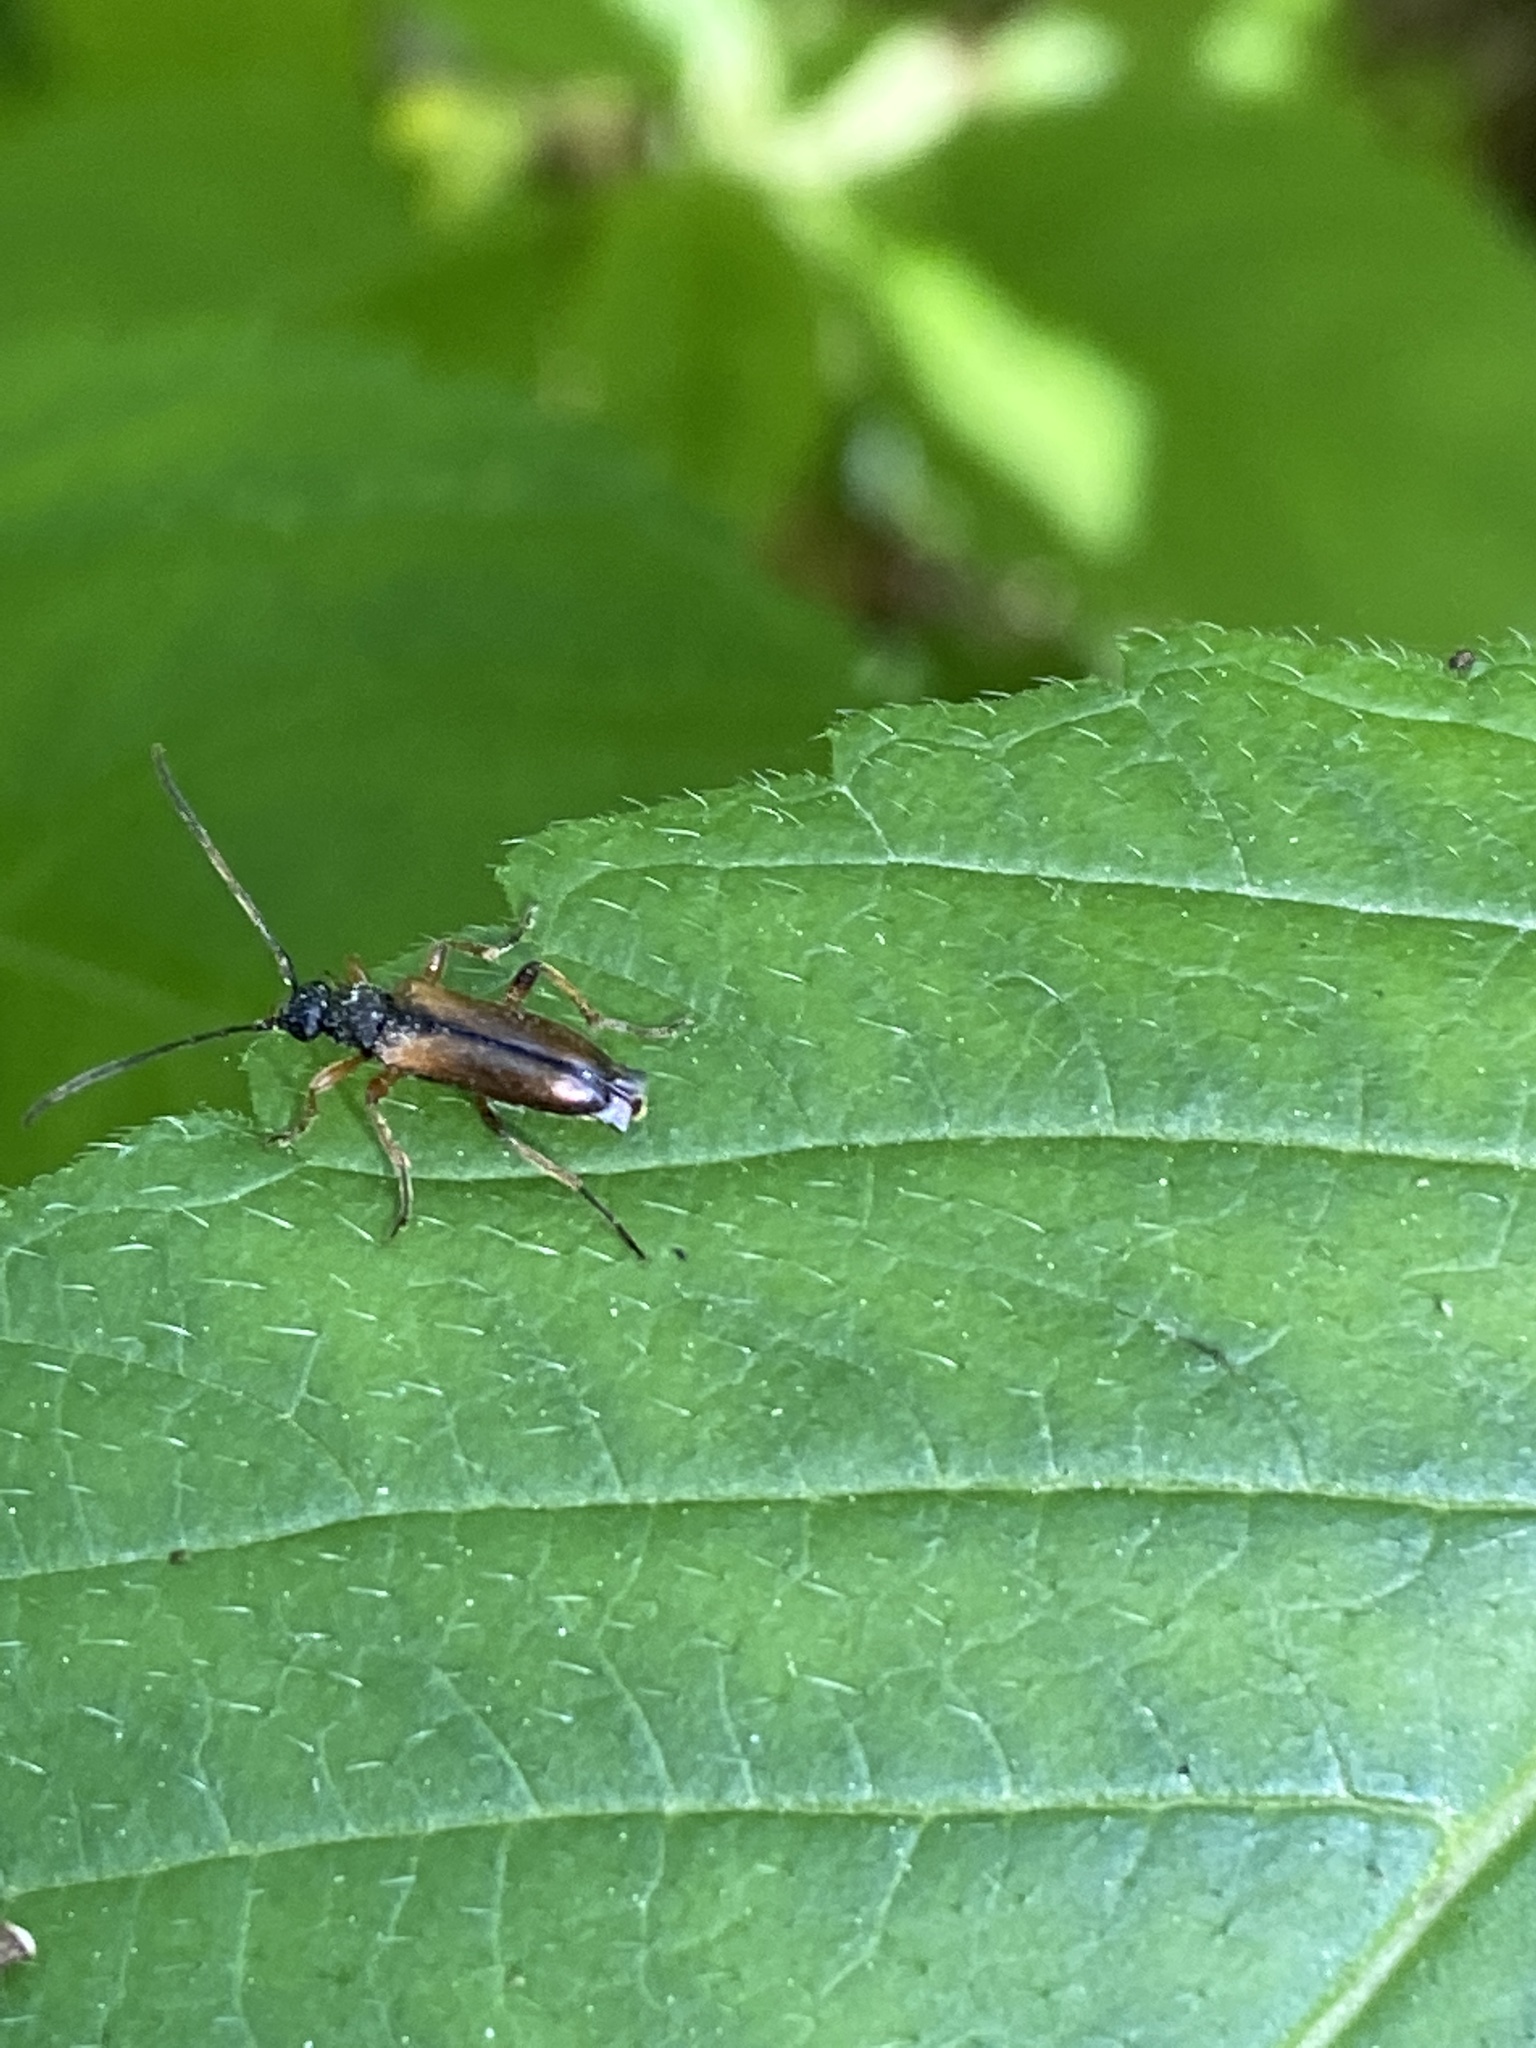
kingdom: Animalia
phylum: Arthropoda
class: Insecta
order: Coleoptera
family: Cerambycidae
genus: Alosterna
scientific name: Alosterna tabacicolor
